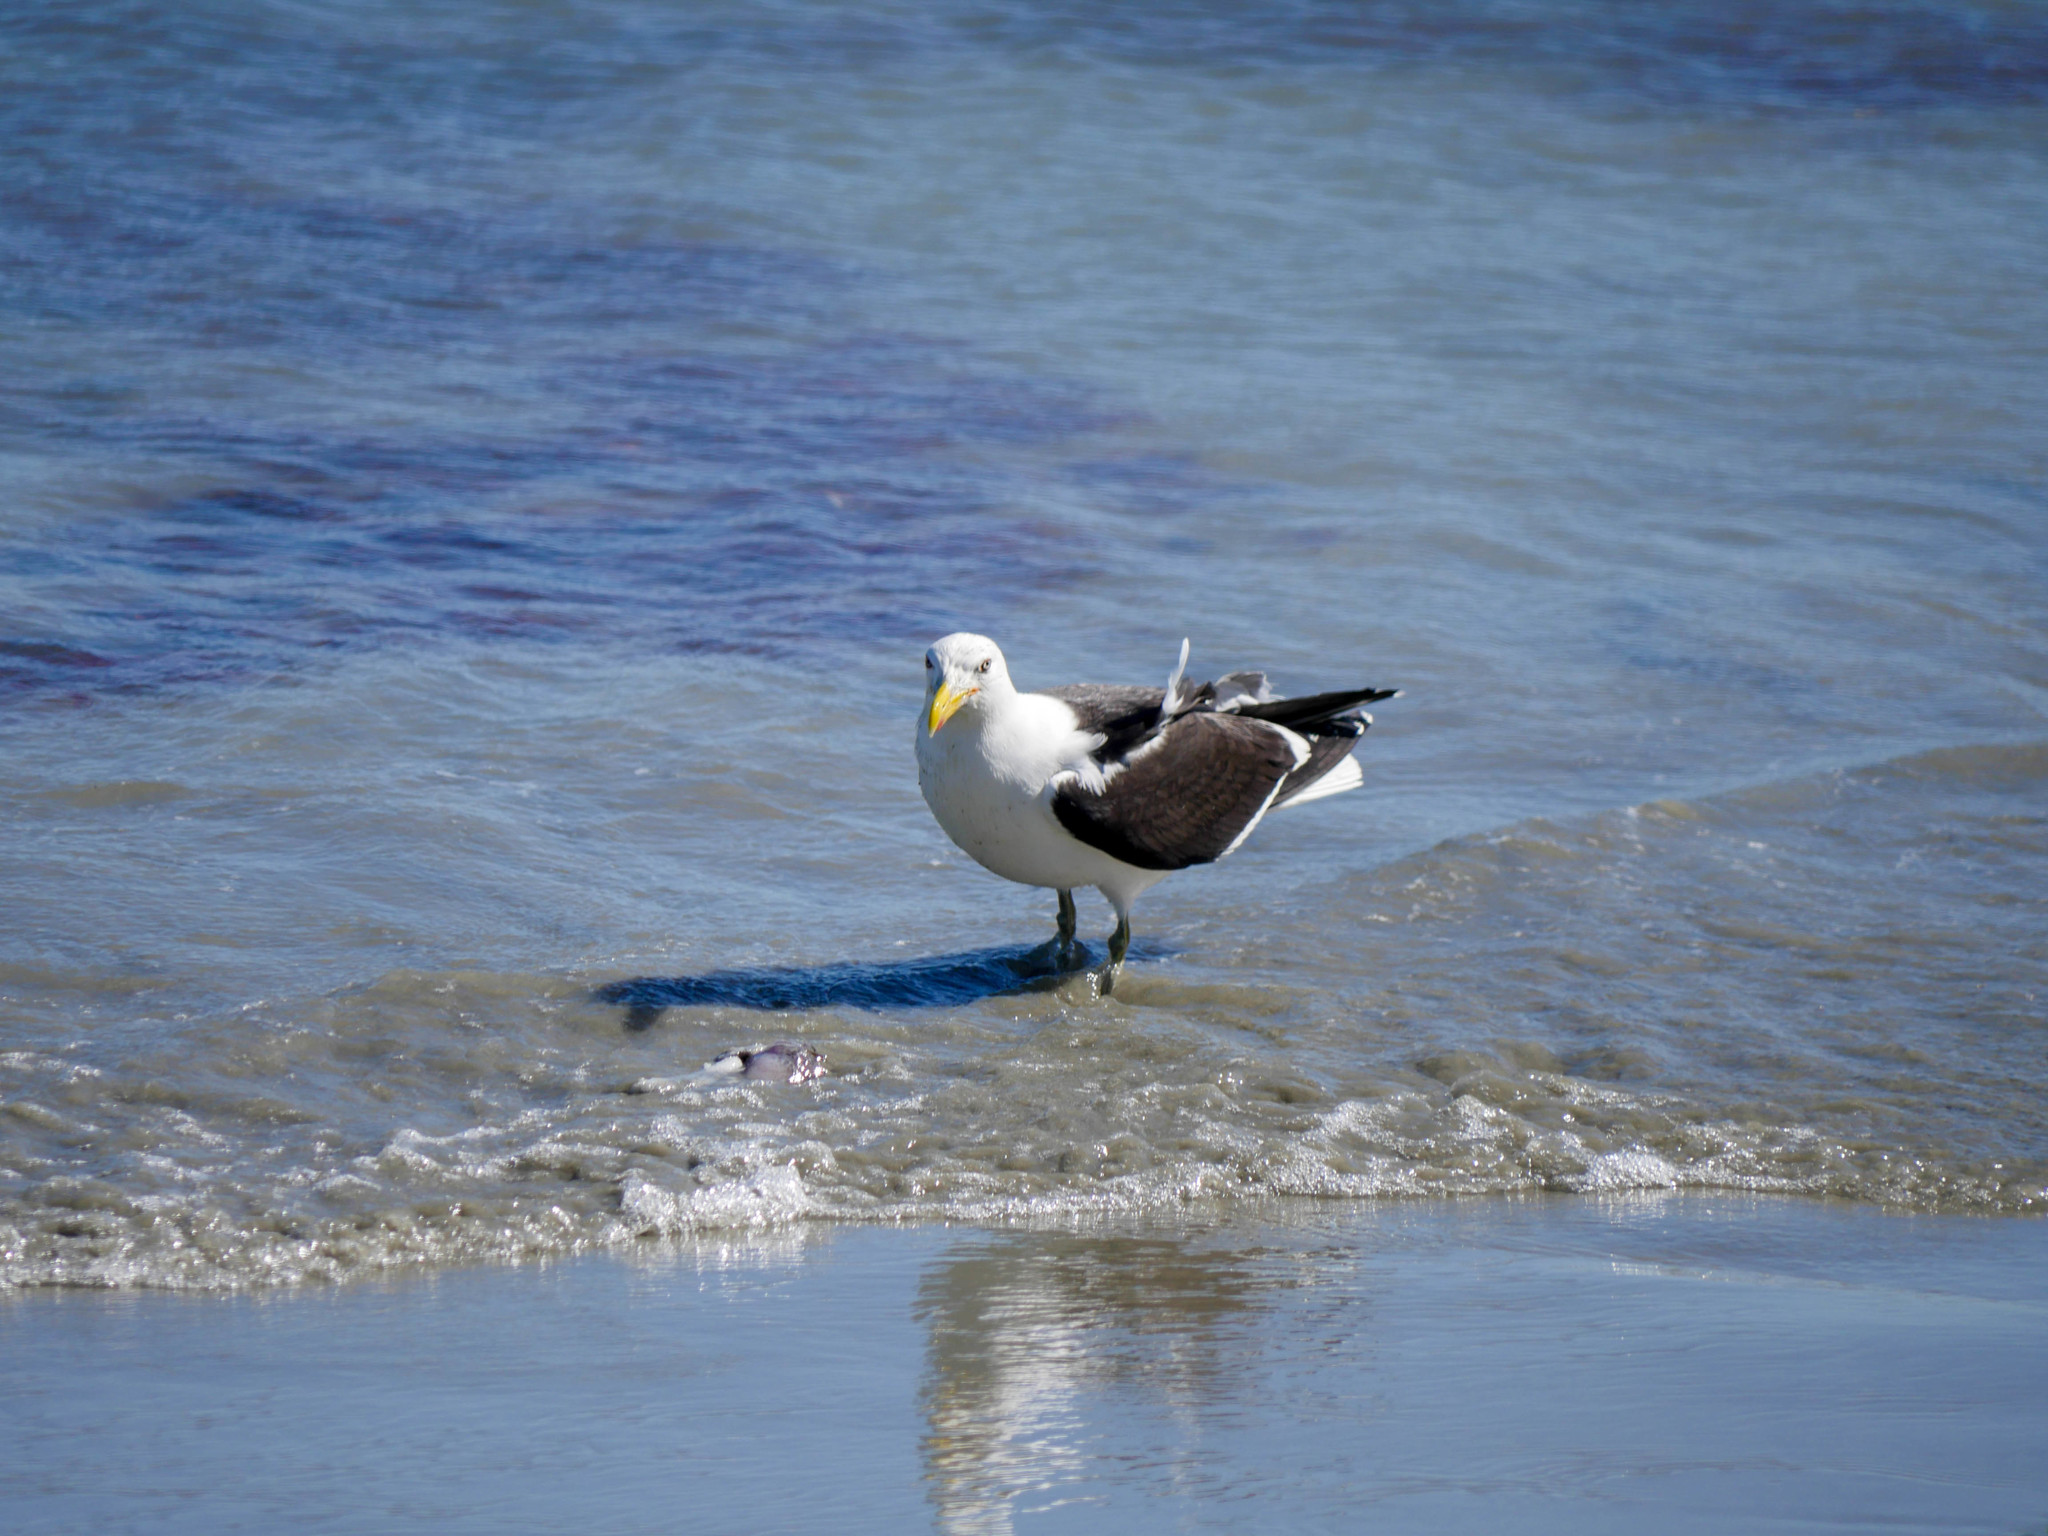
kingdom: Animalia
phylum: Chordata
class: Aves
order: Charadriiformes
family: Laridae
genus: Larus
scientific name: Larus dominicanus
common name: Kelp gull
